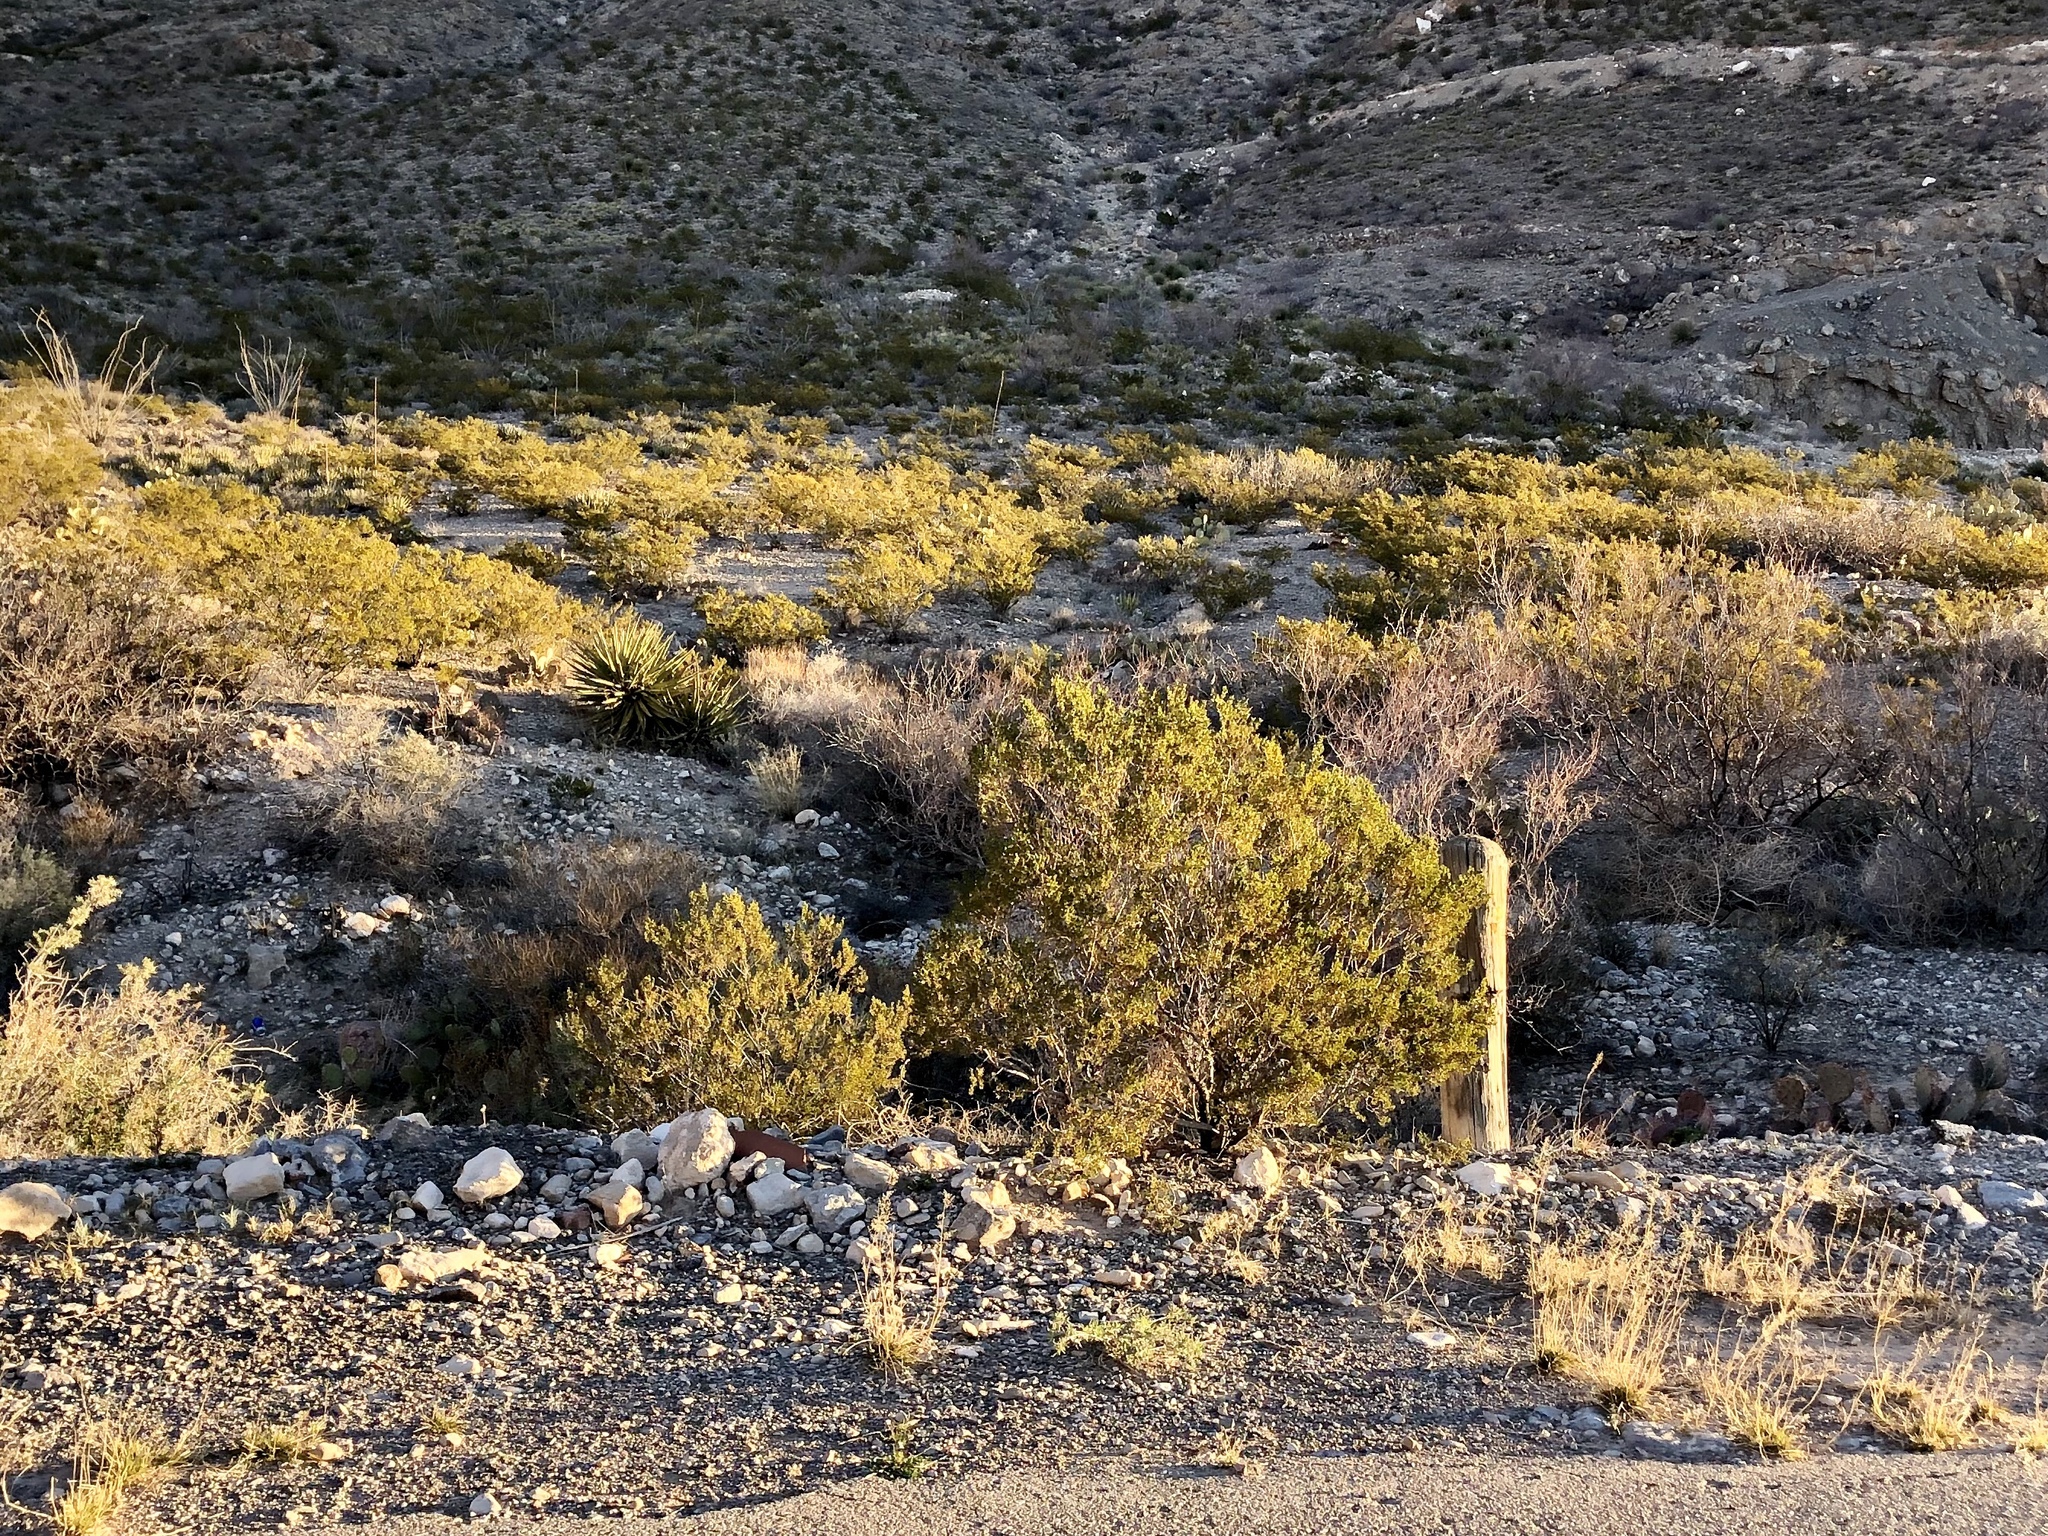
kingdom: Plantae
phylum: Tracheophyta
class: Magnoliopsida
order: Zygophyllales
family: Zygophyllaceae
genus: Larrea
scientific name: Larrea tridentata
